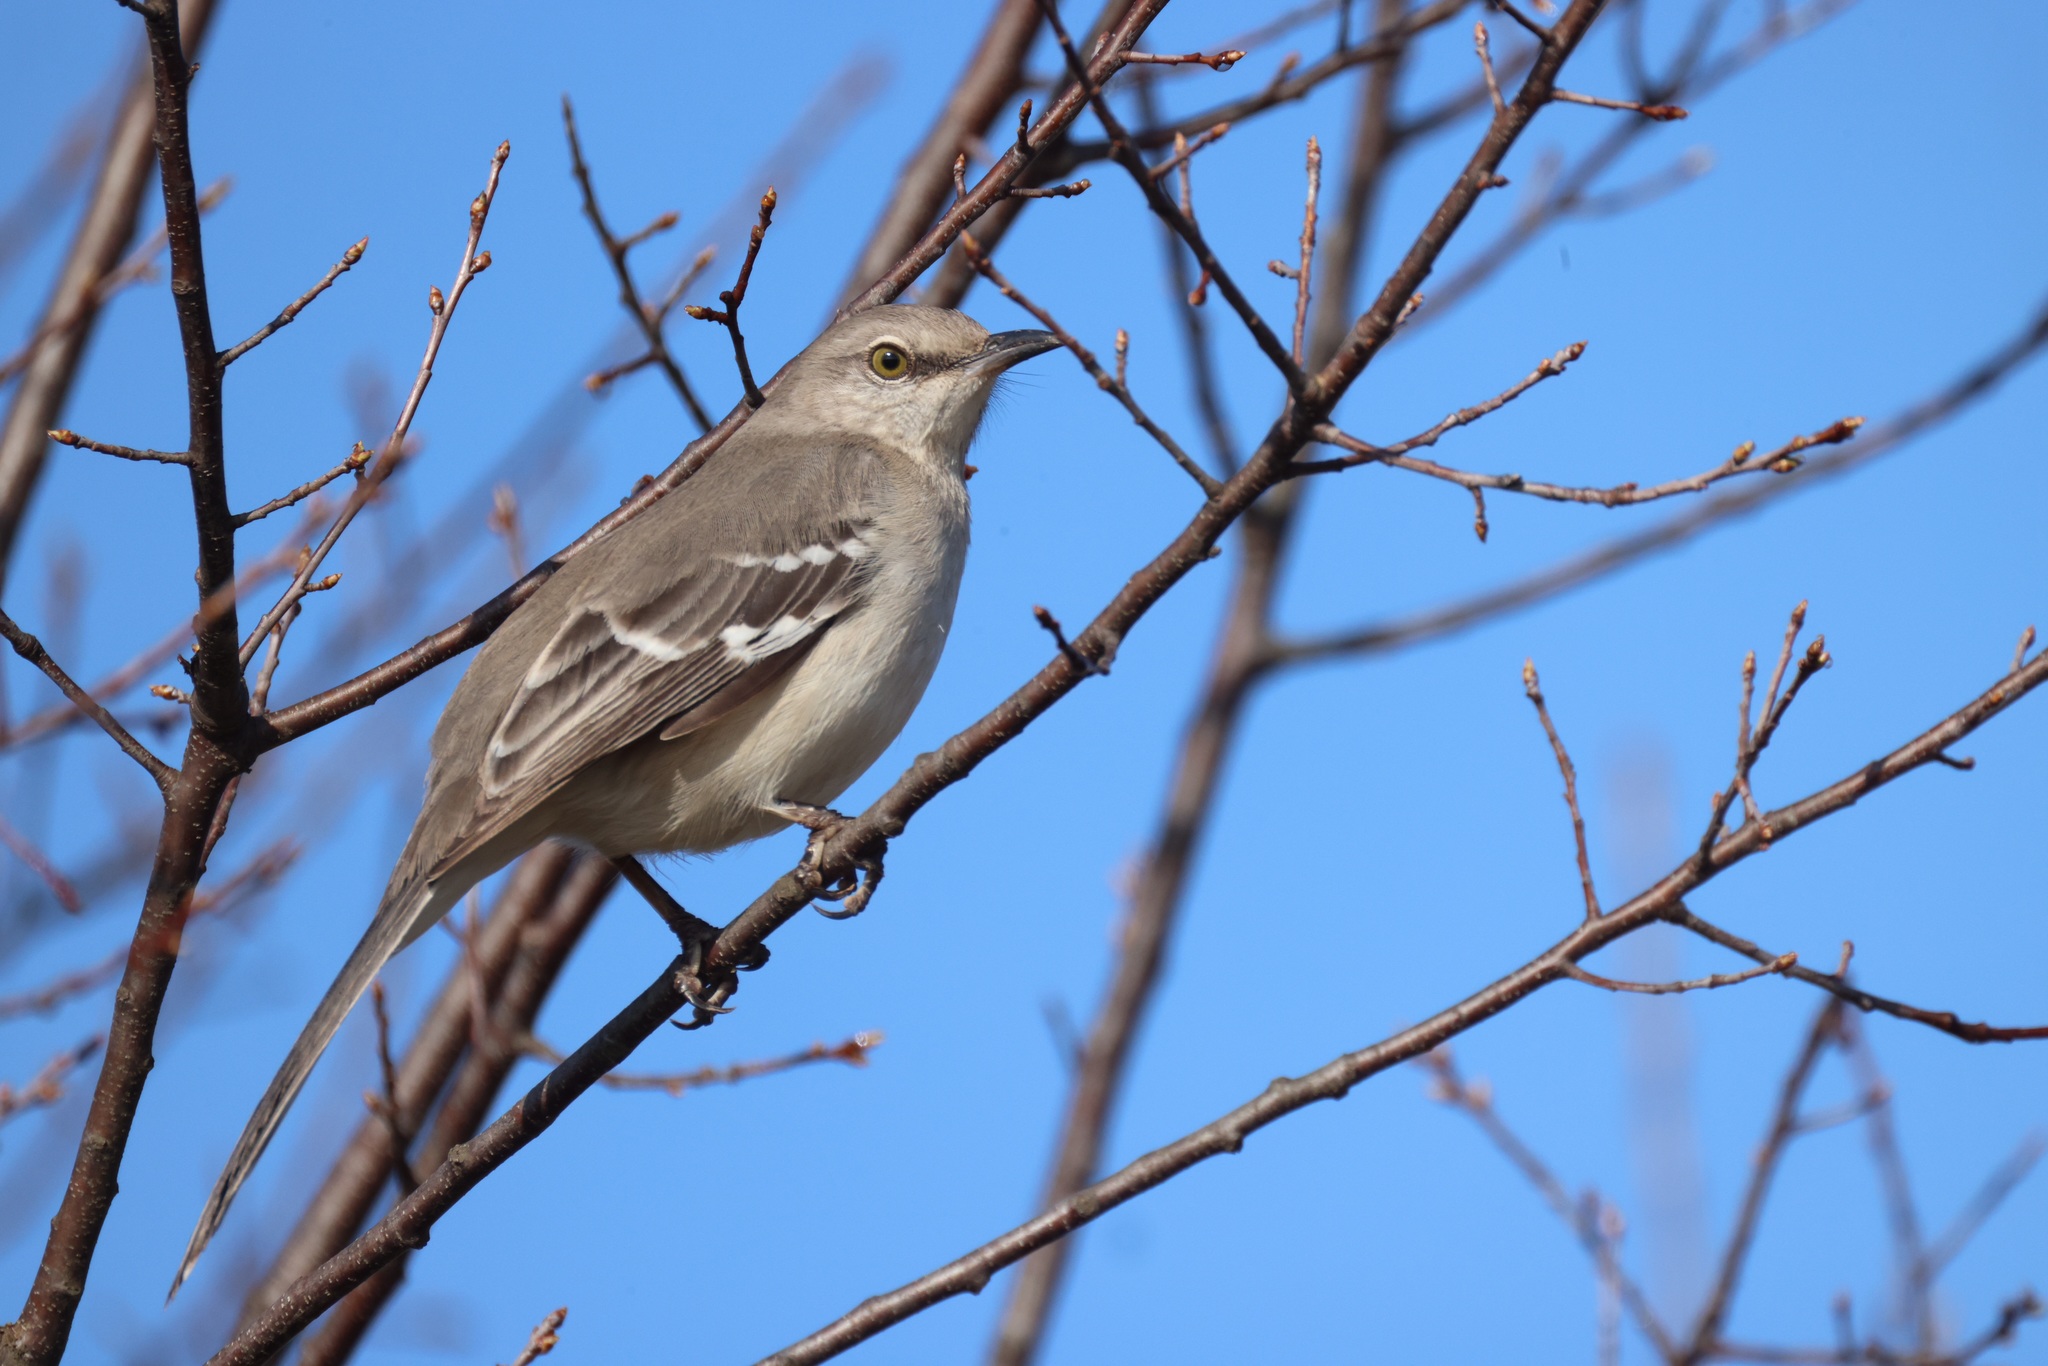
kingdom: Animalia
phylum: Chordata
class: Aves
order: Passeriformes
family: Mimidae
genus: Mimus
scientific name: Mimus polyglottos
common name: Northern mockingbird
